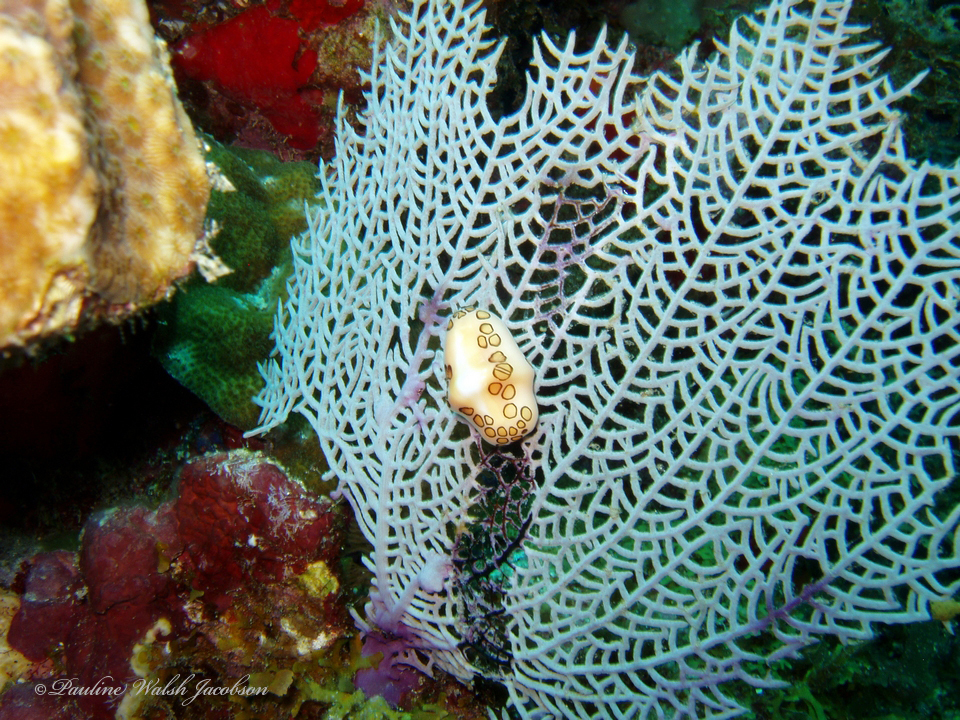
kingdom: Animalia
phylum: Mollusca
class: Gastropoda
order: Littorinimorpha
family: Ovulidae
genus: Cyphoma
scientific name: Cyphoma gibbosum
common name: Flamingo tongue
